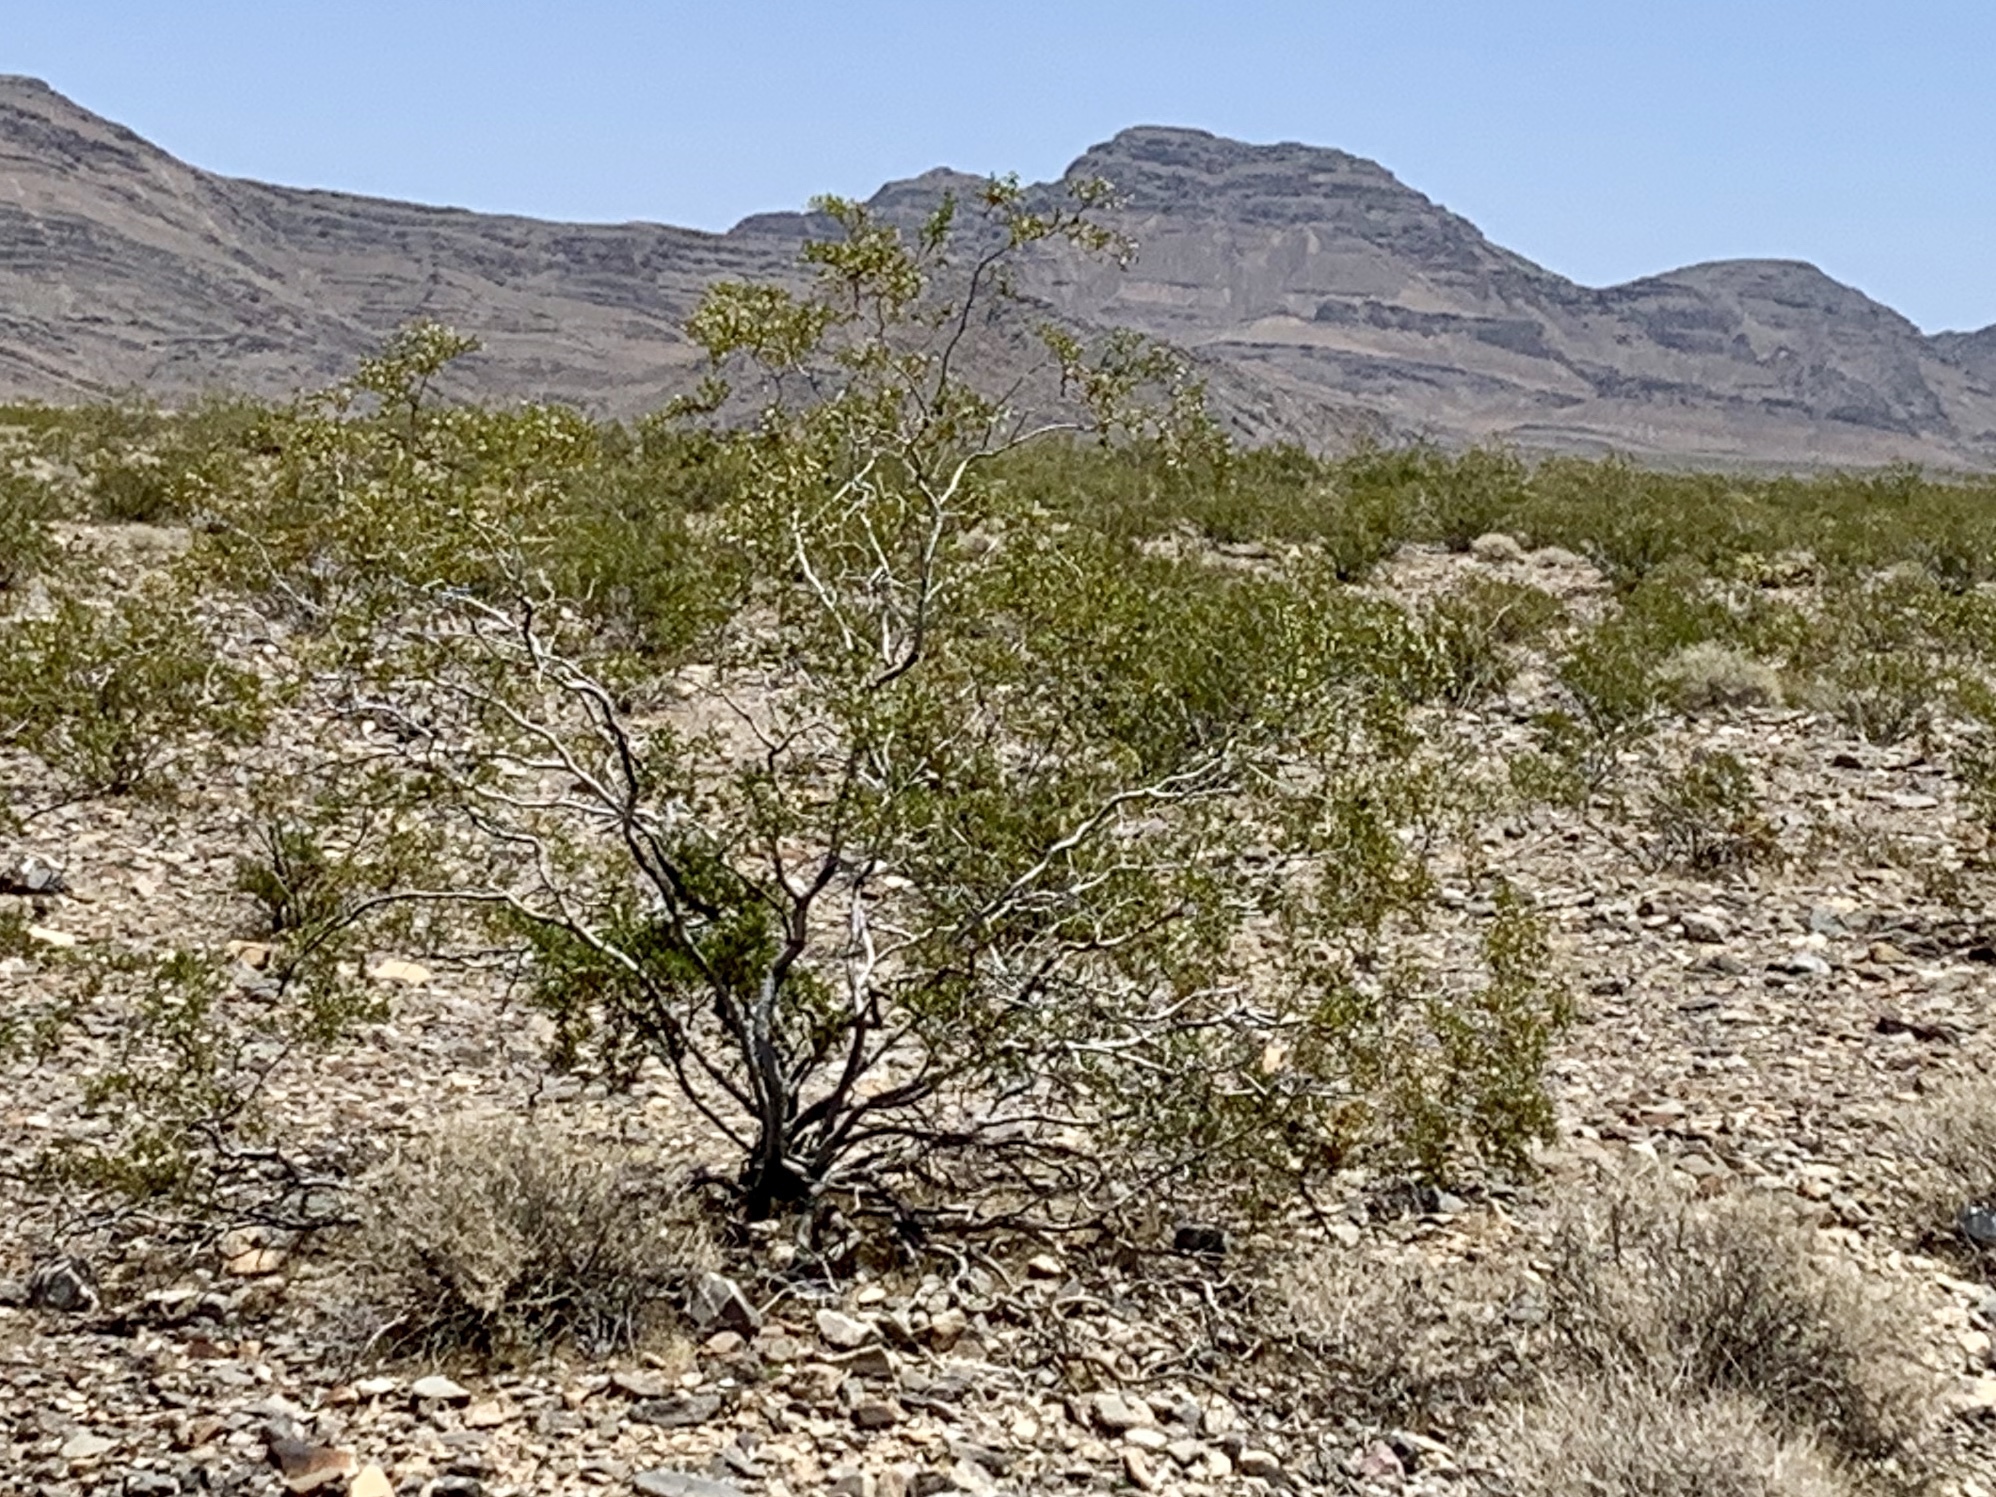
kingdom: Plantae
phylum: Tracheophyta
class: Magnoliopsida
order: Zygophyllales
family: Zygophyllaceae
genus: Larrea
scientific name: Larrea tridentata
